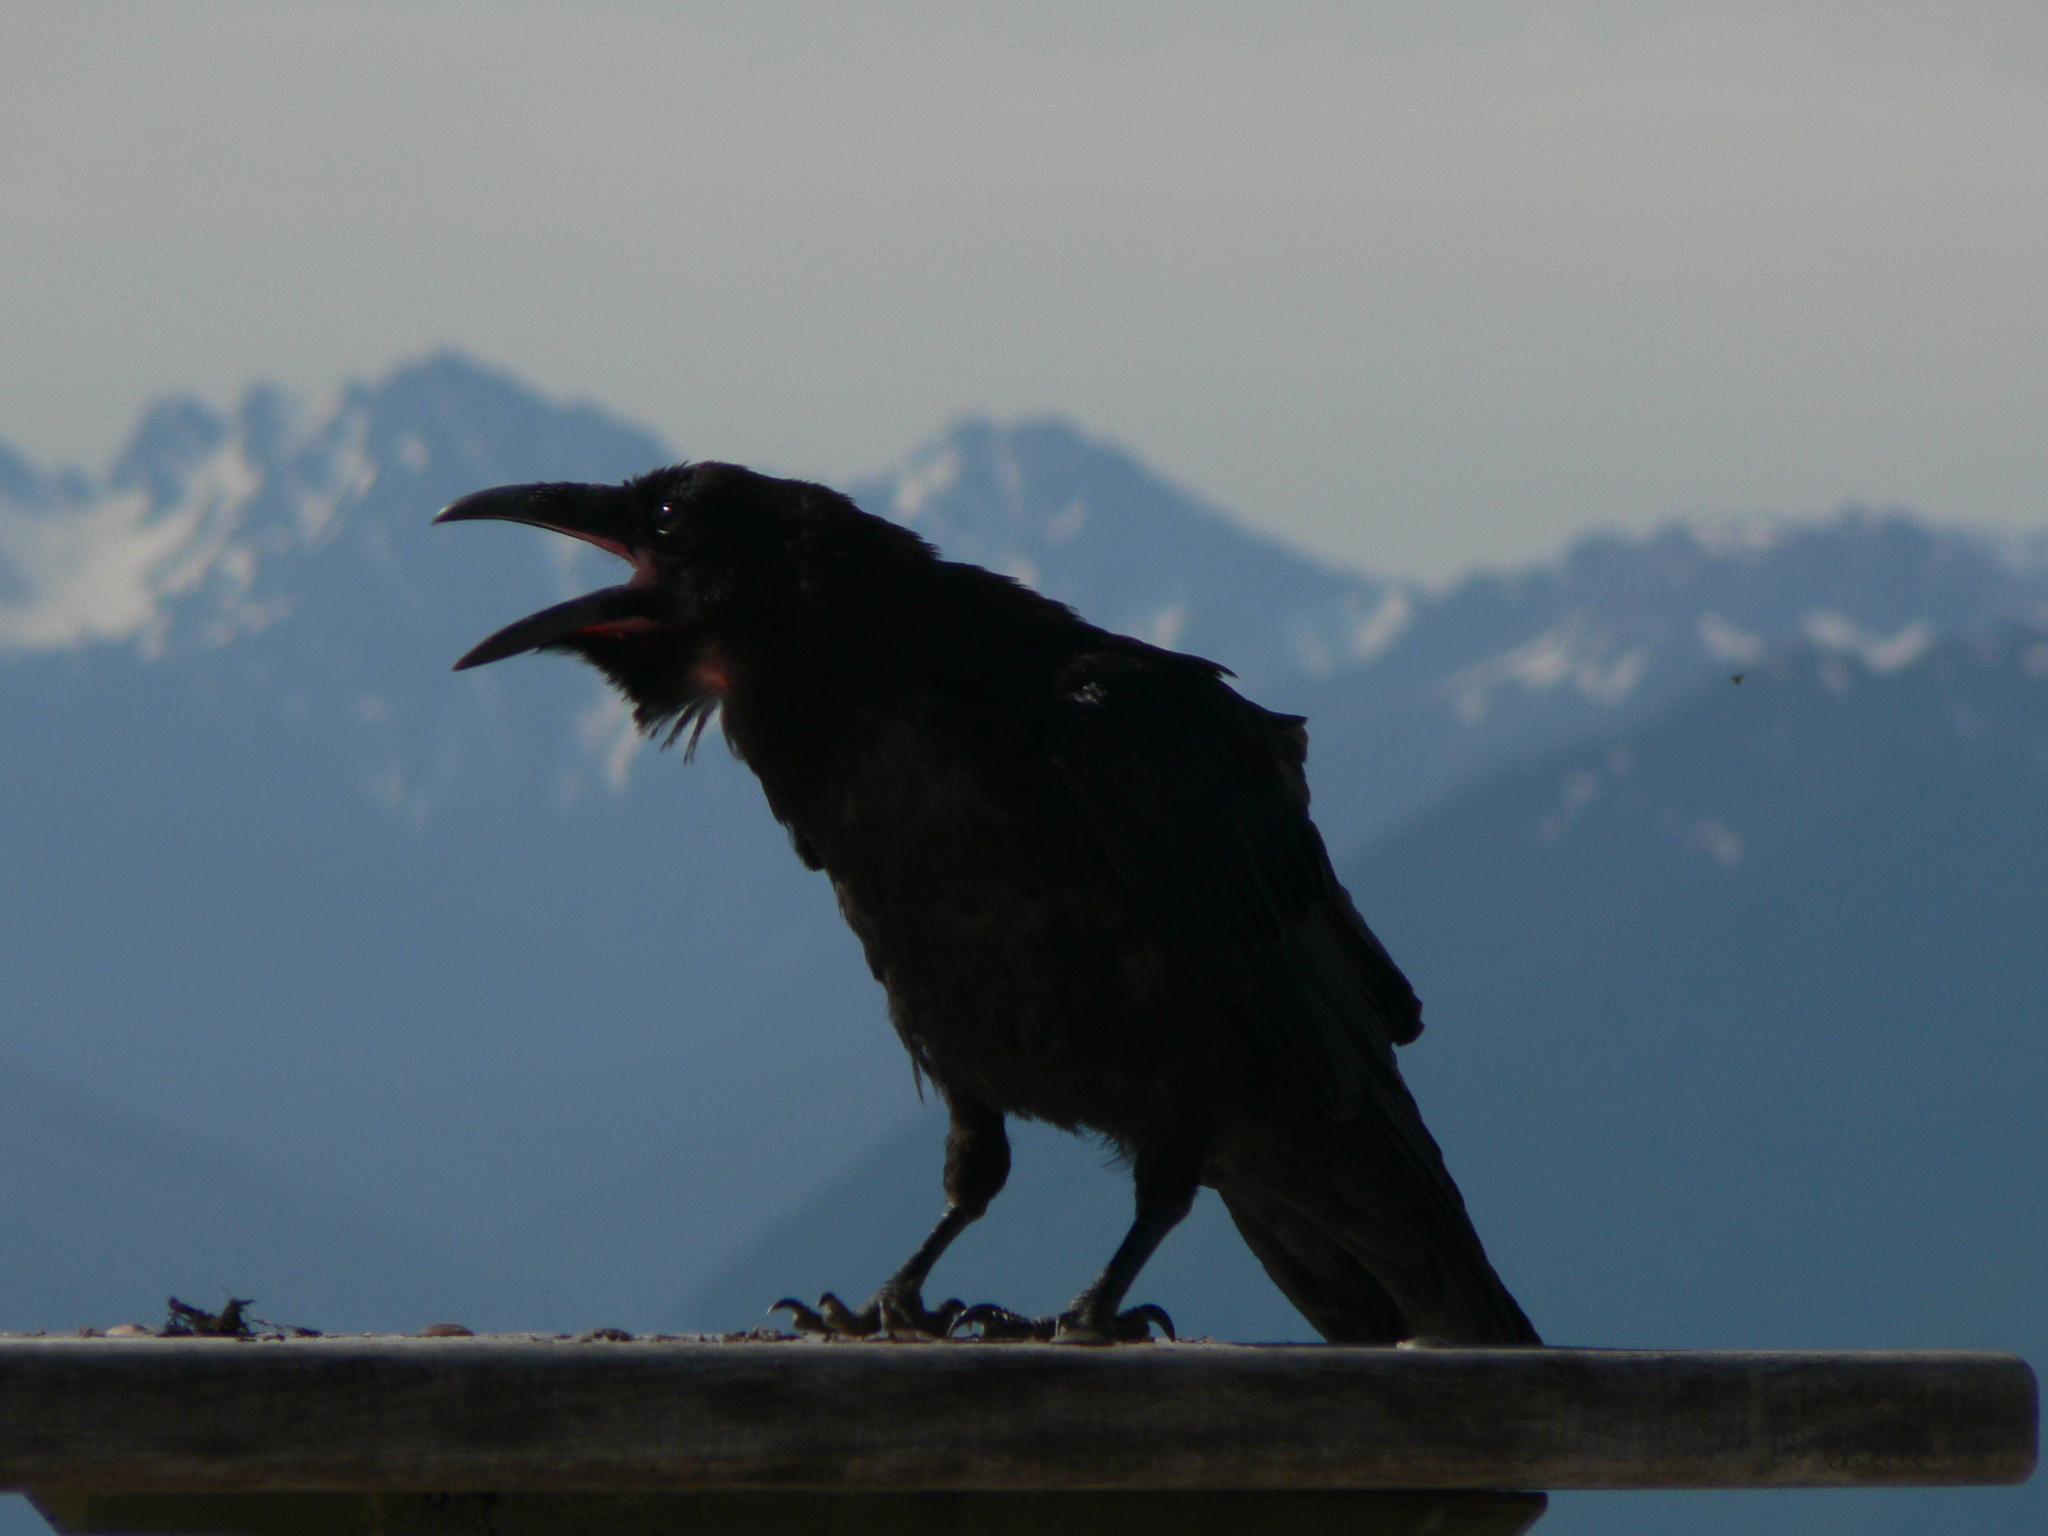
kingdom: Animalia
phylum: Chordata
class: Aves
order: Passeriformes
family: Corvidae
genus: Corvus
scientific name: Corvus corax
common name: Common raven
